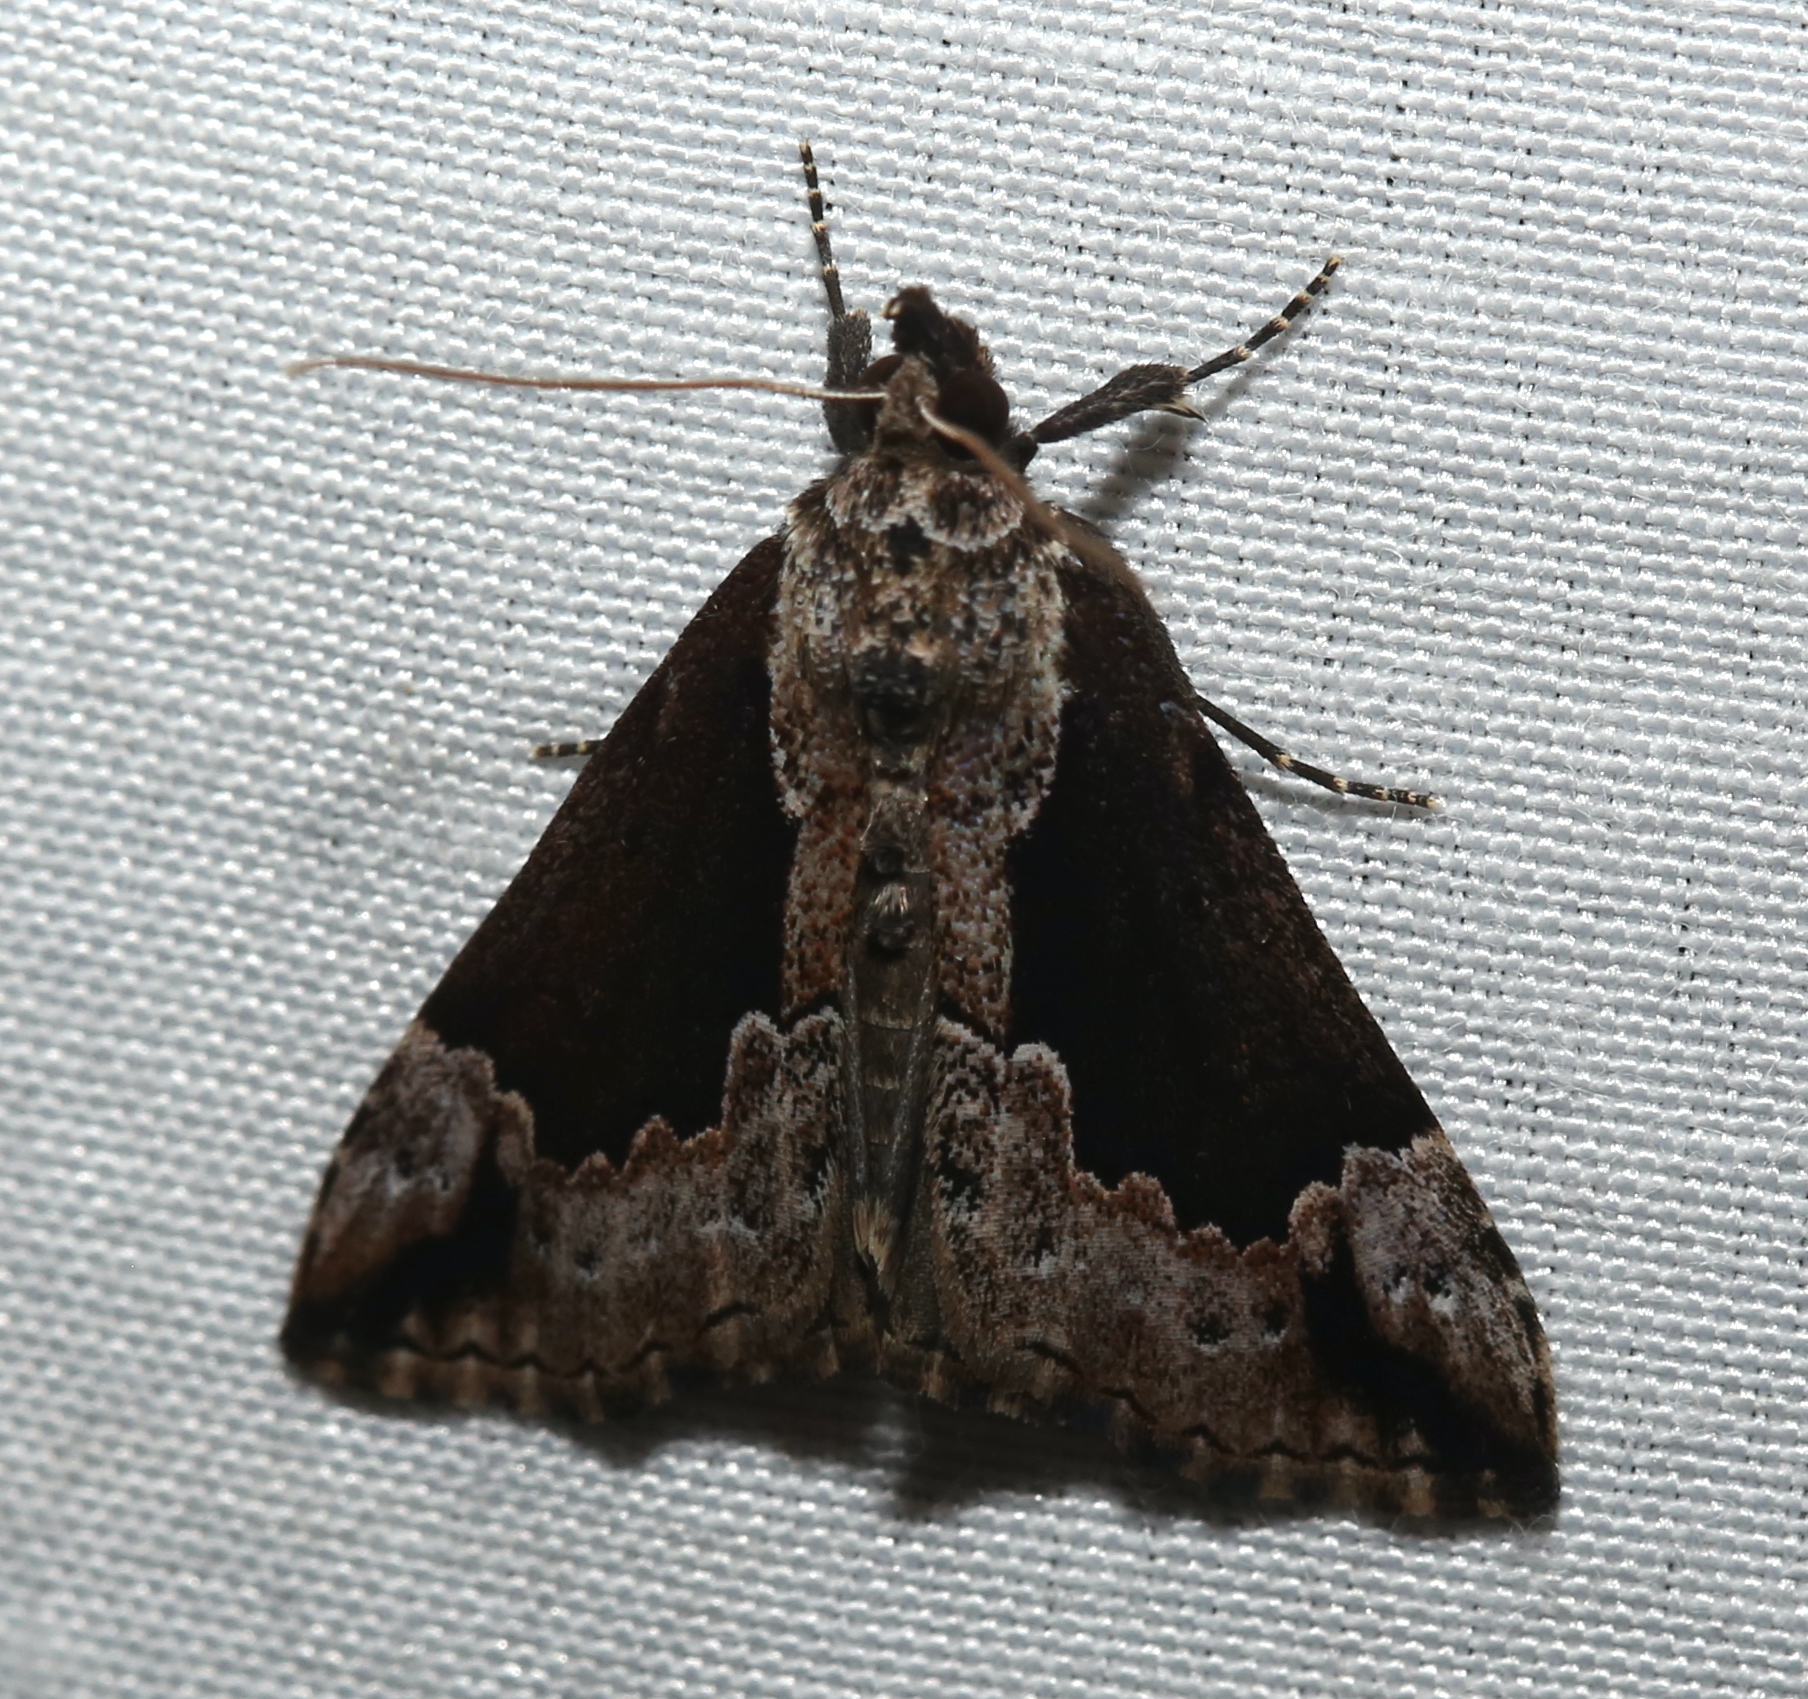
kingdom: Animalia
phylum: Arthropoda
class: Insecta
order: Lepidoptera
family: Erebidae
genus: Hypena
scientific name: Hypena baltimoralis
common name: Baltimore snout
